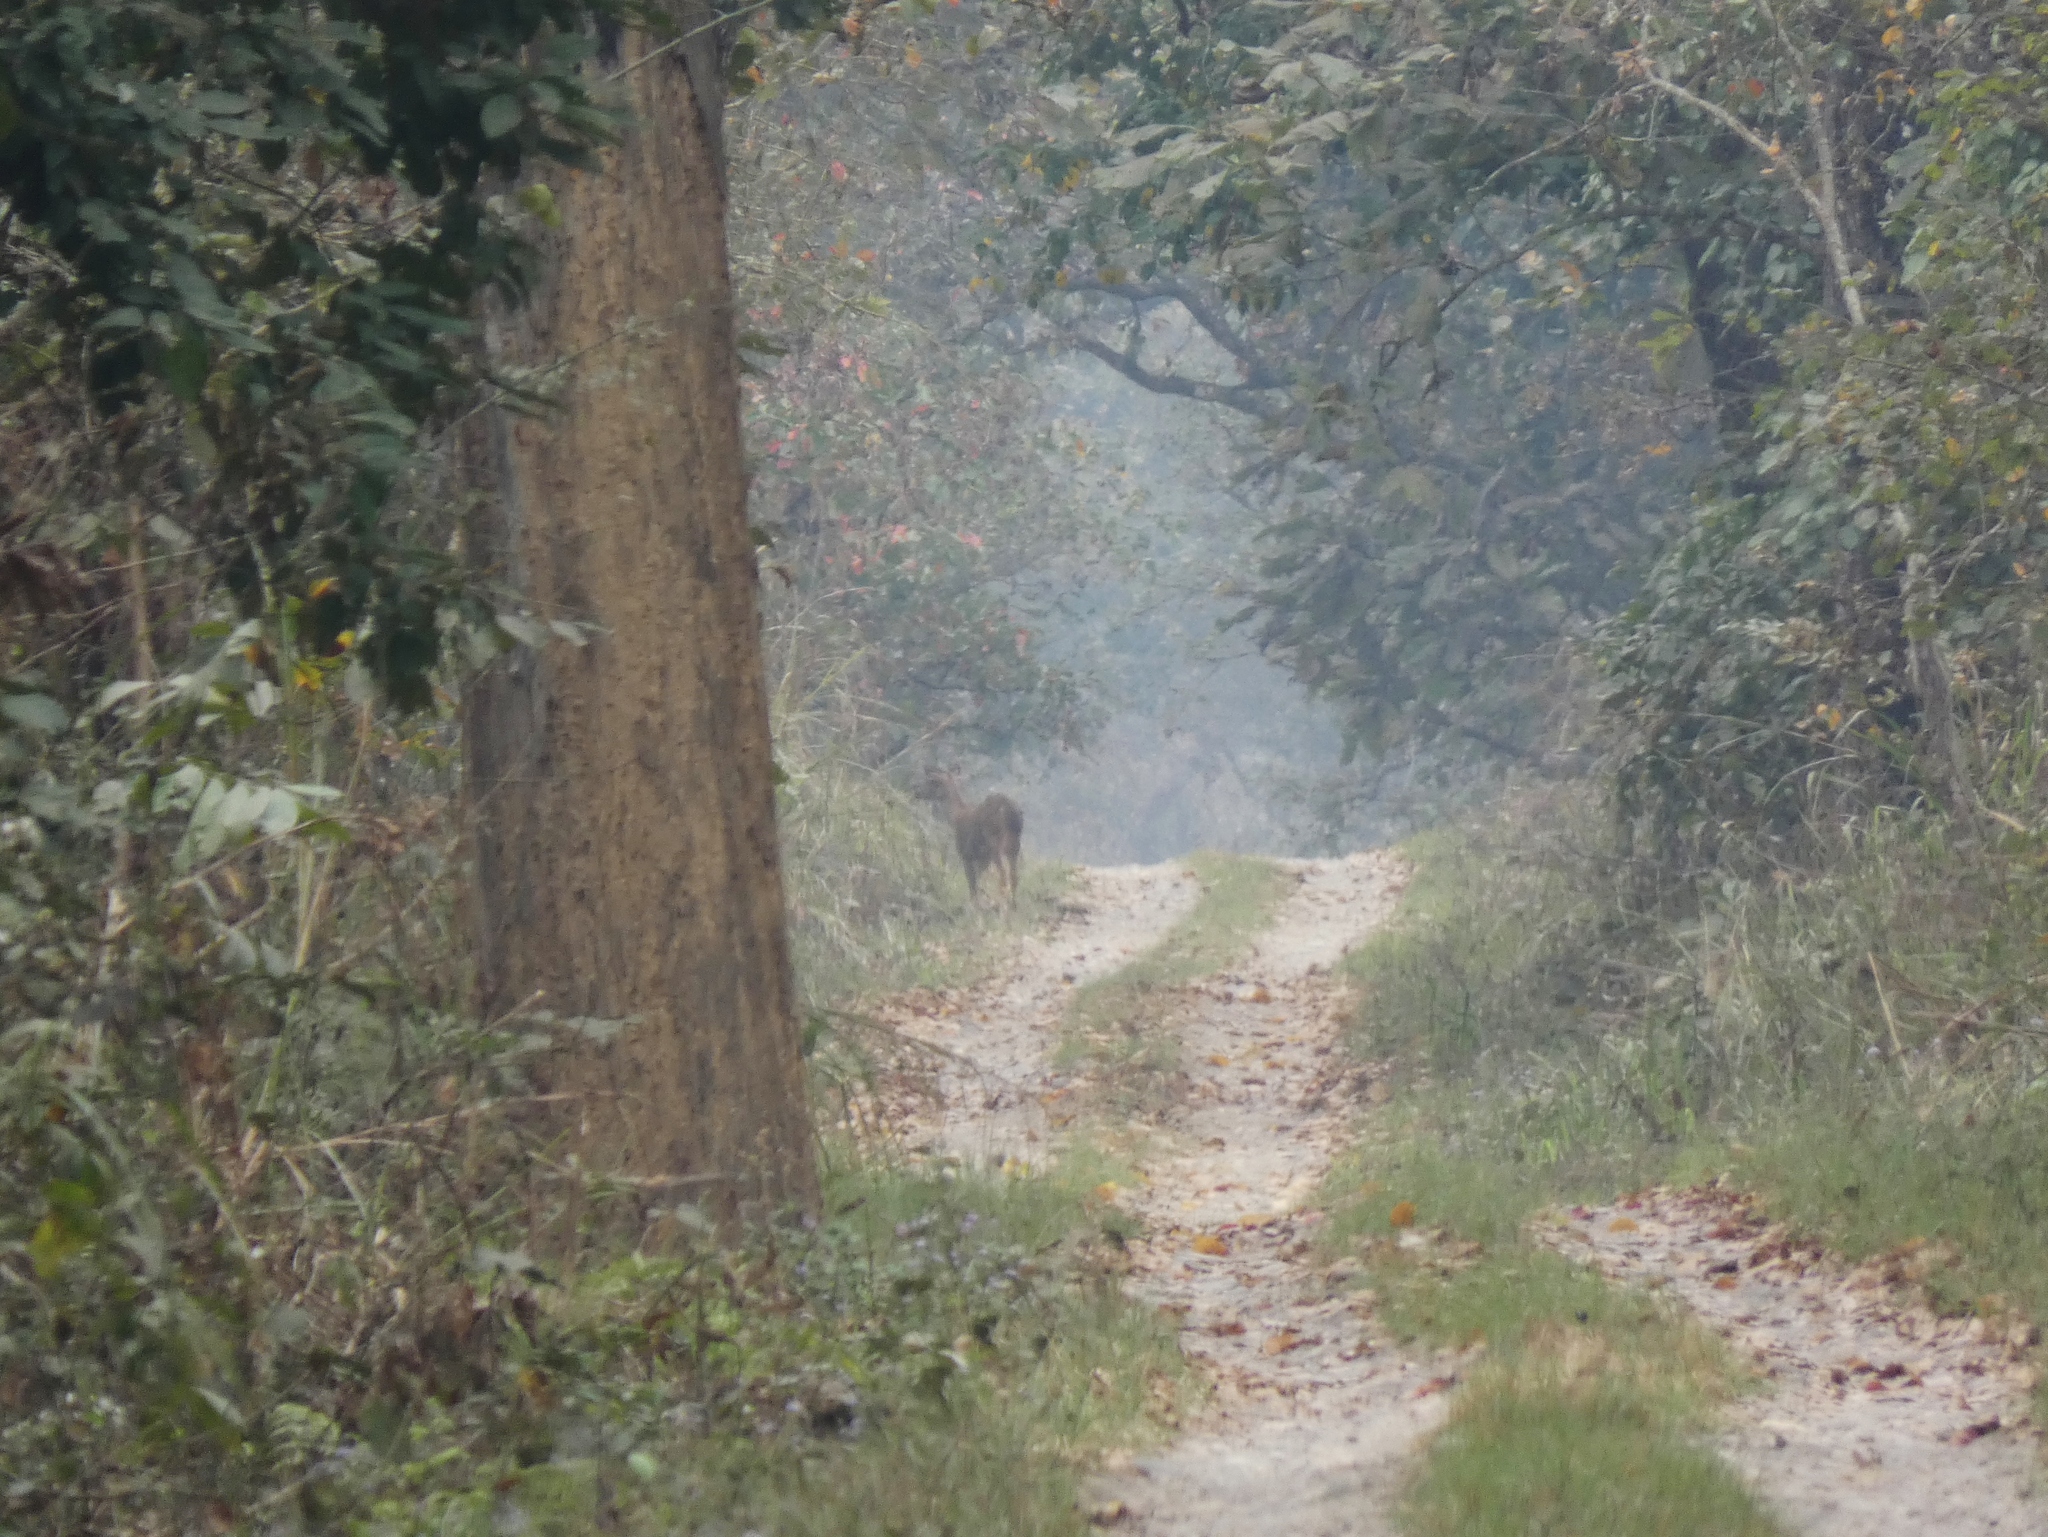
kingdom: Animalia
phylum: Chordata
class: Mammalia
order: Artiodactyla
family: Cervidae
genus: Rusa
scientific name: Rusa unicolor
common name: Sambar
